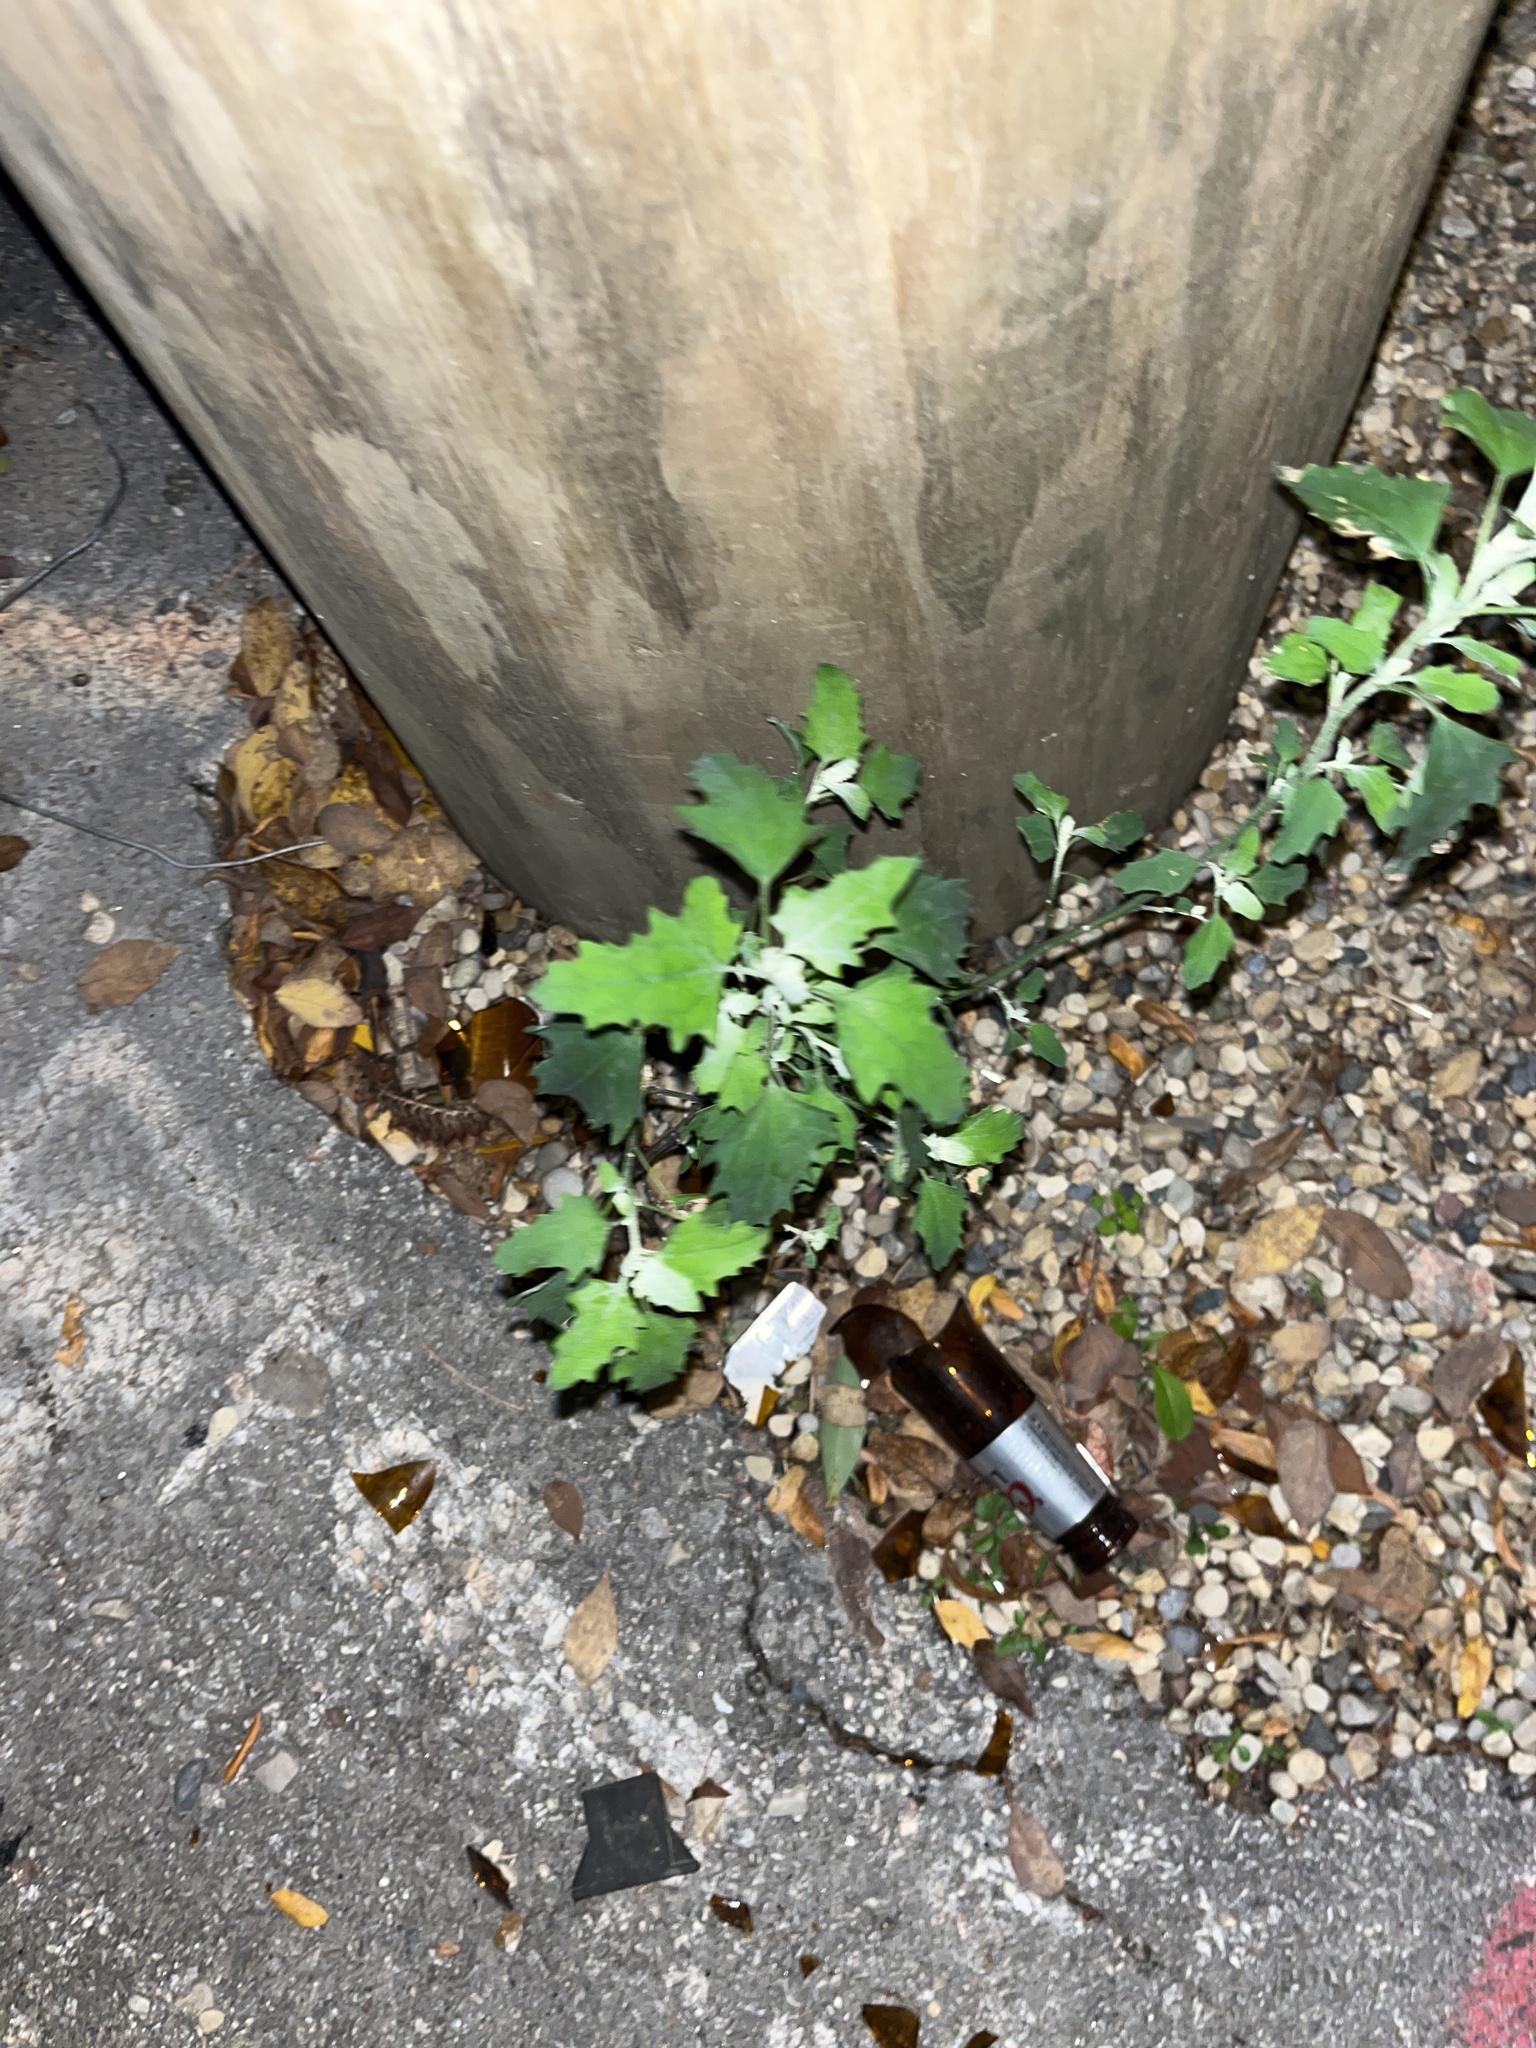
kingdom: Plantae
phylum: Tracheophyta
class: Magnoliopsida
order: Caryophyllales
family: Amaranthaceae
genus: Chenopodium
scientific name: Chenopodium album
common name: Fat-hen
